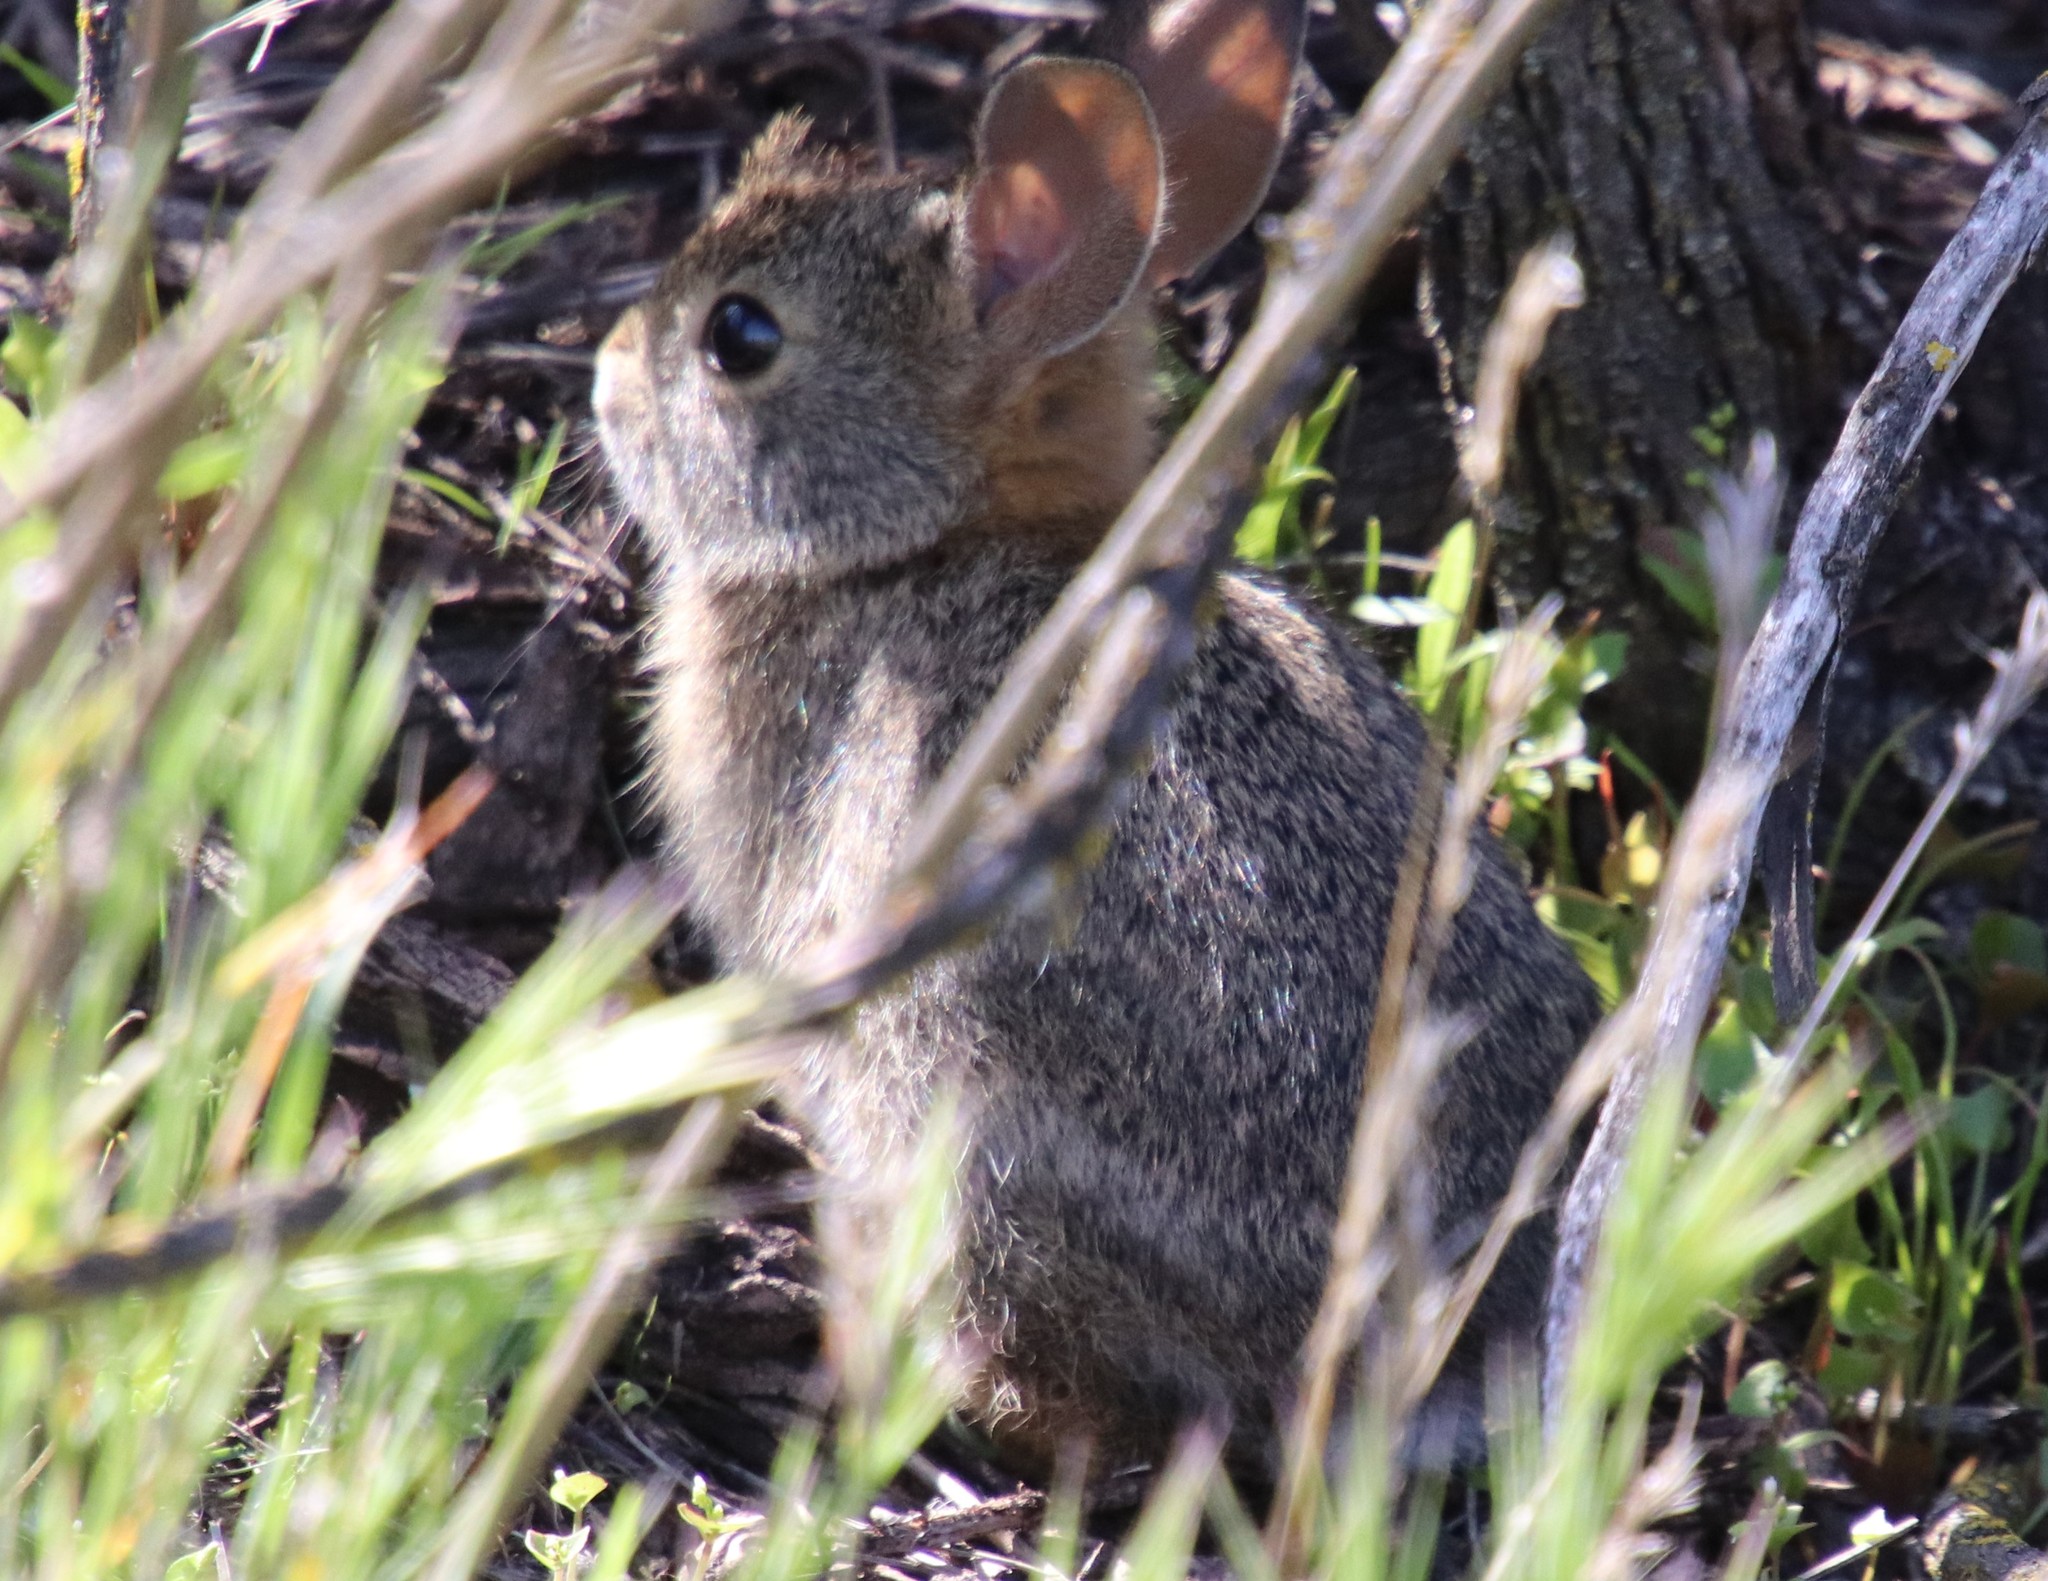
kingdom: Animalia
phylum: Chordata
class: Mammalia
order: Lagomorpha
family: Leporidae
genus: Sylvilagus
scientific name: Sylvilagus bachmani
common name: Brush rabbit
